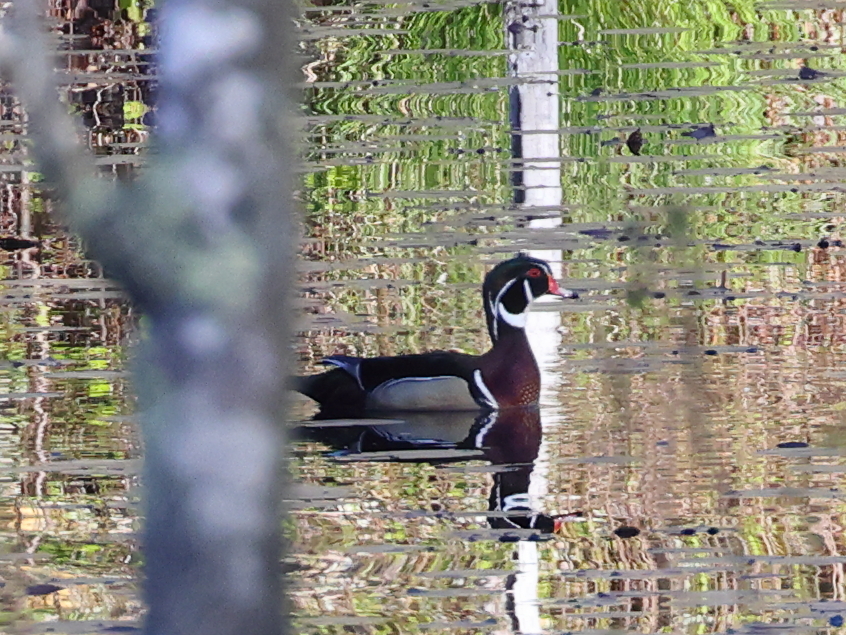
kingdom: Animalia
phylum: Chordata
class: Aves
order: Anseriformes
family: Anatidae
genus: Aix
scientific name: Aix sponsa
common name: Wood duck
